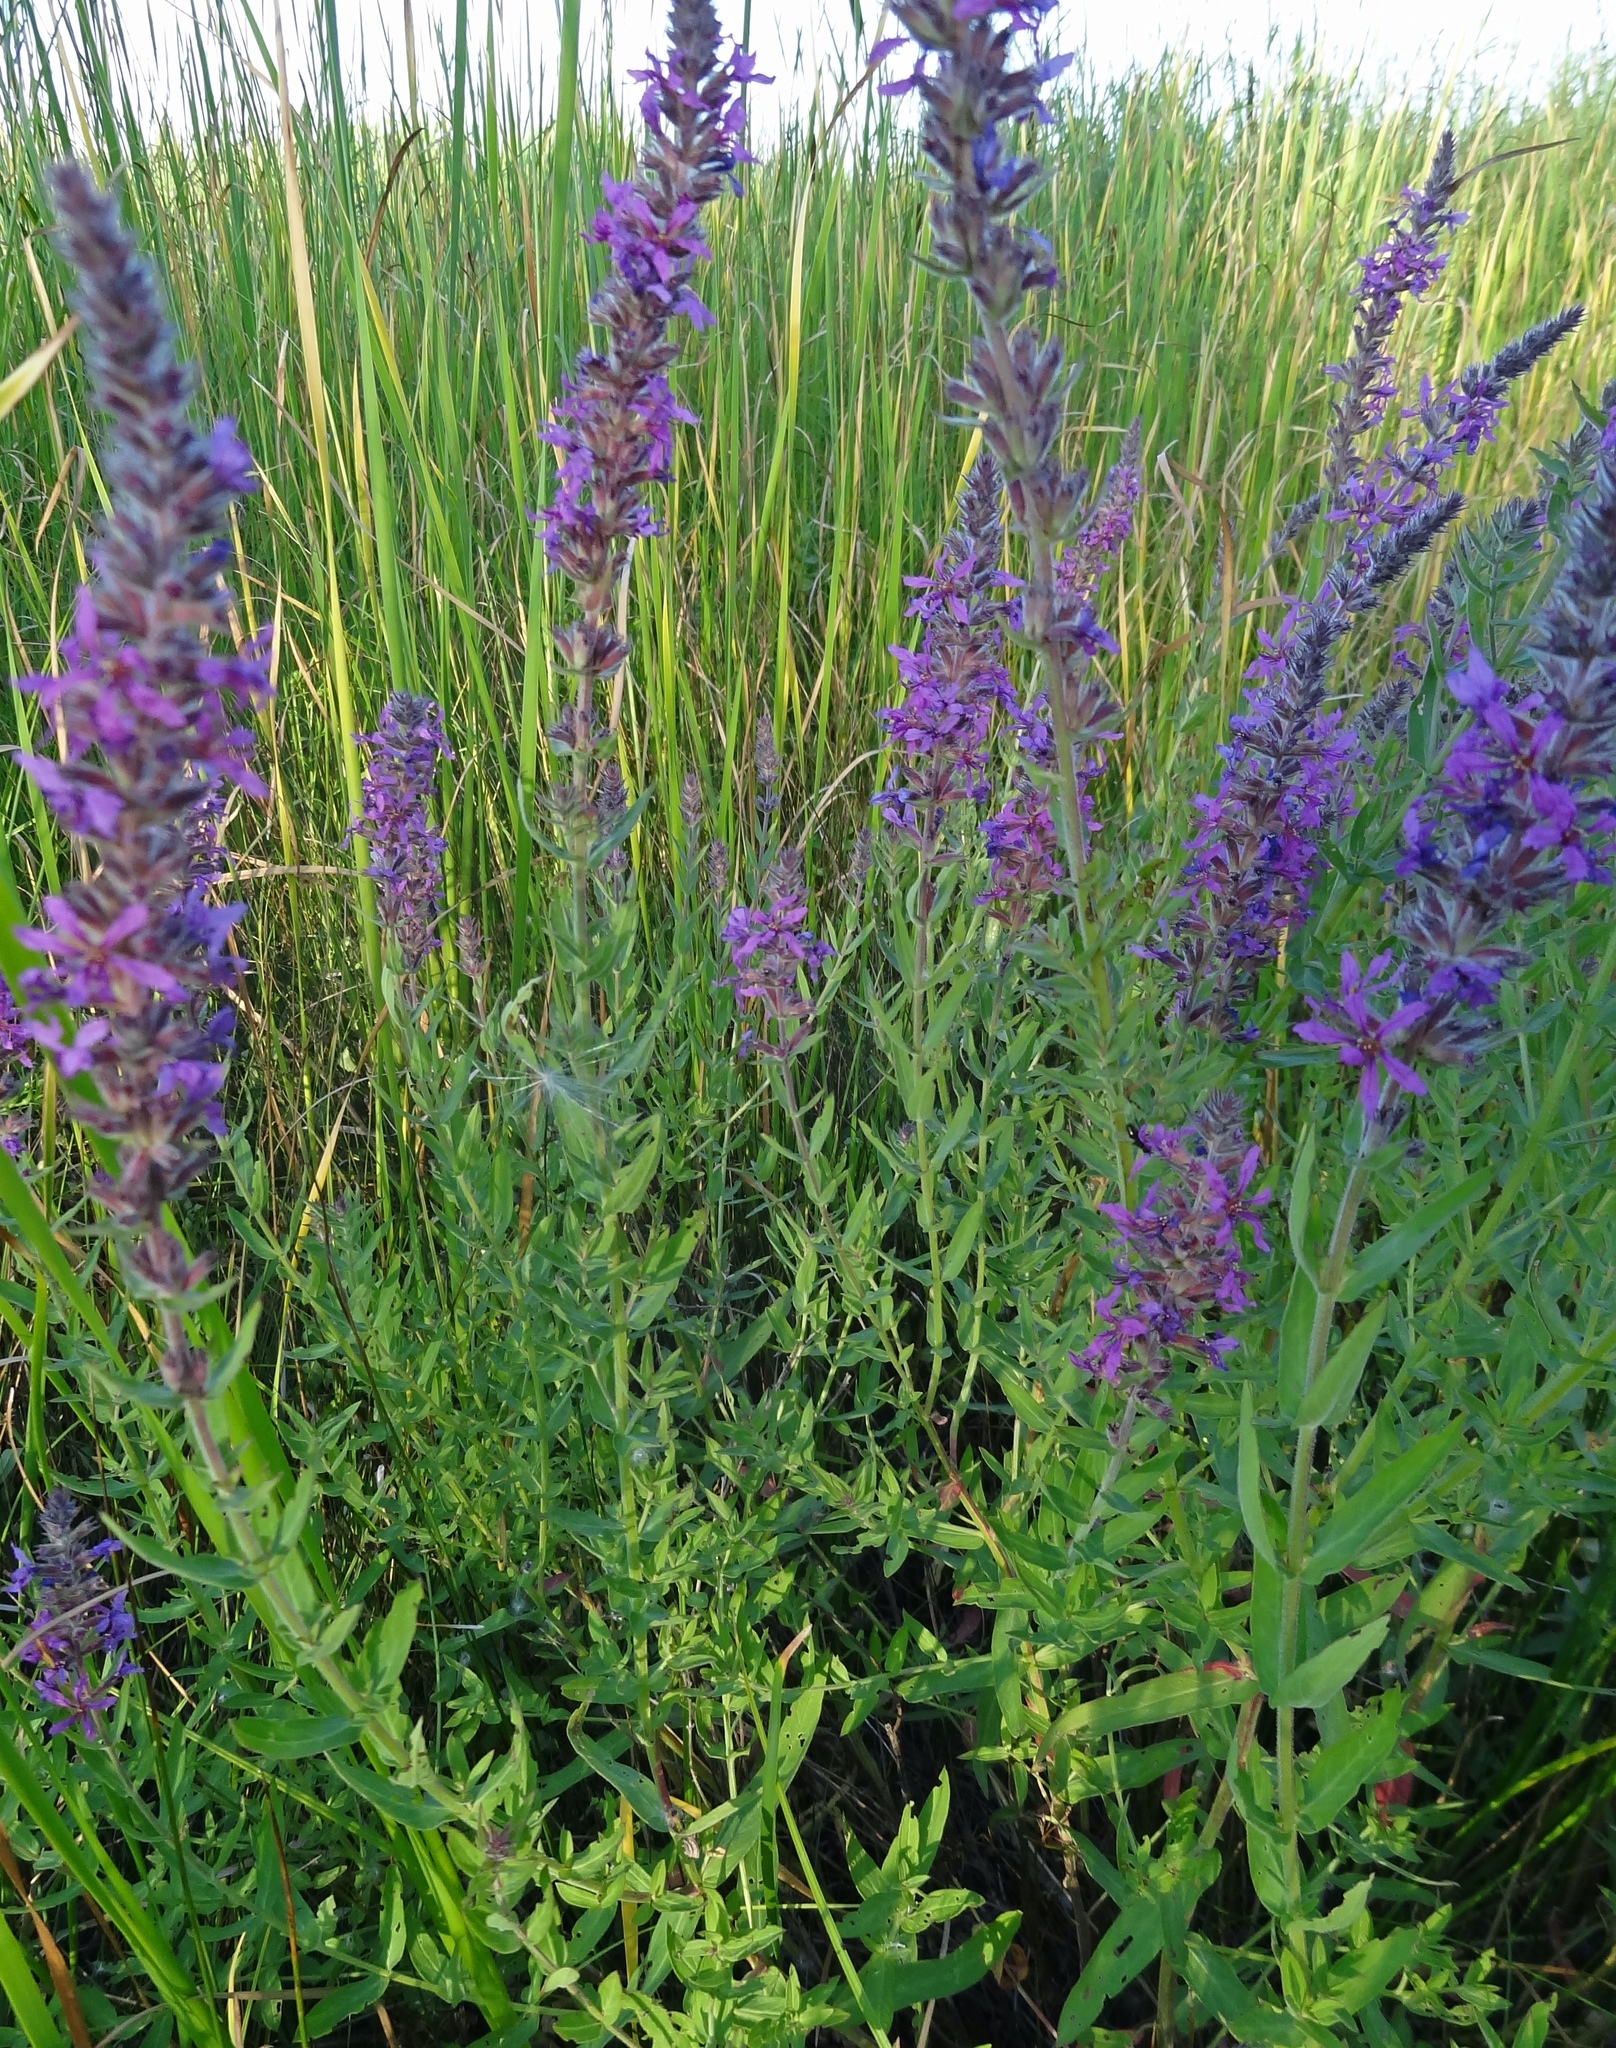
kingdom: Plantae
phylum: Tracheophyta
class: Magnoliopsida
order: Myrtales
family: Lythraceae
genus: Lythrum
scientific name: Lythrum salicaria
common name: Purple loosestrife
